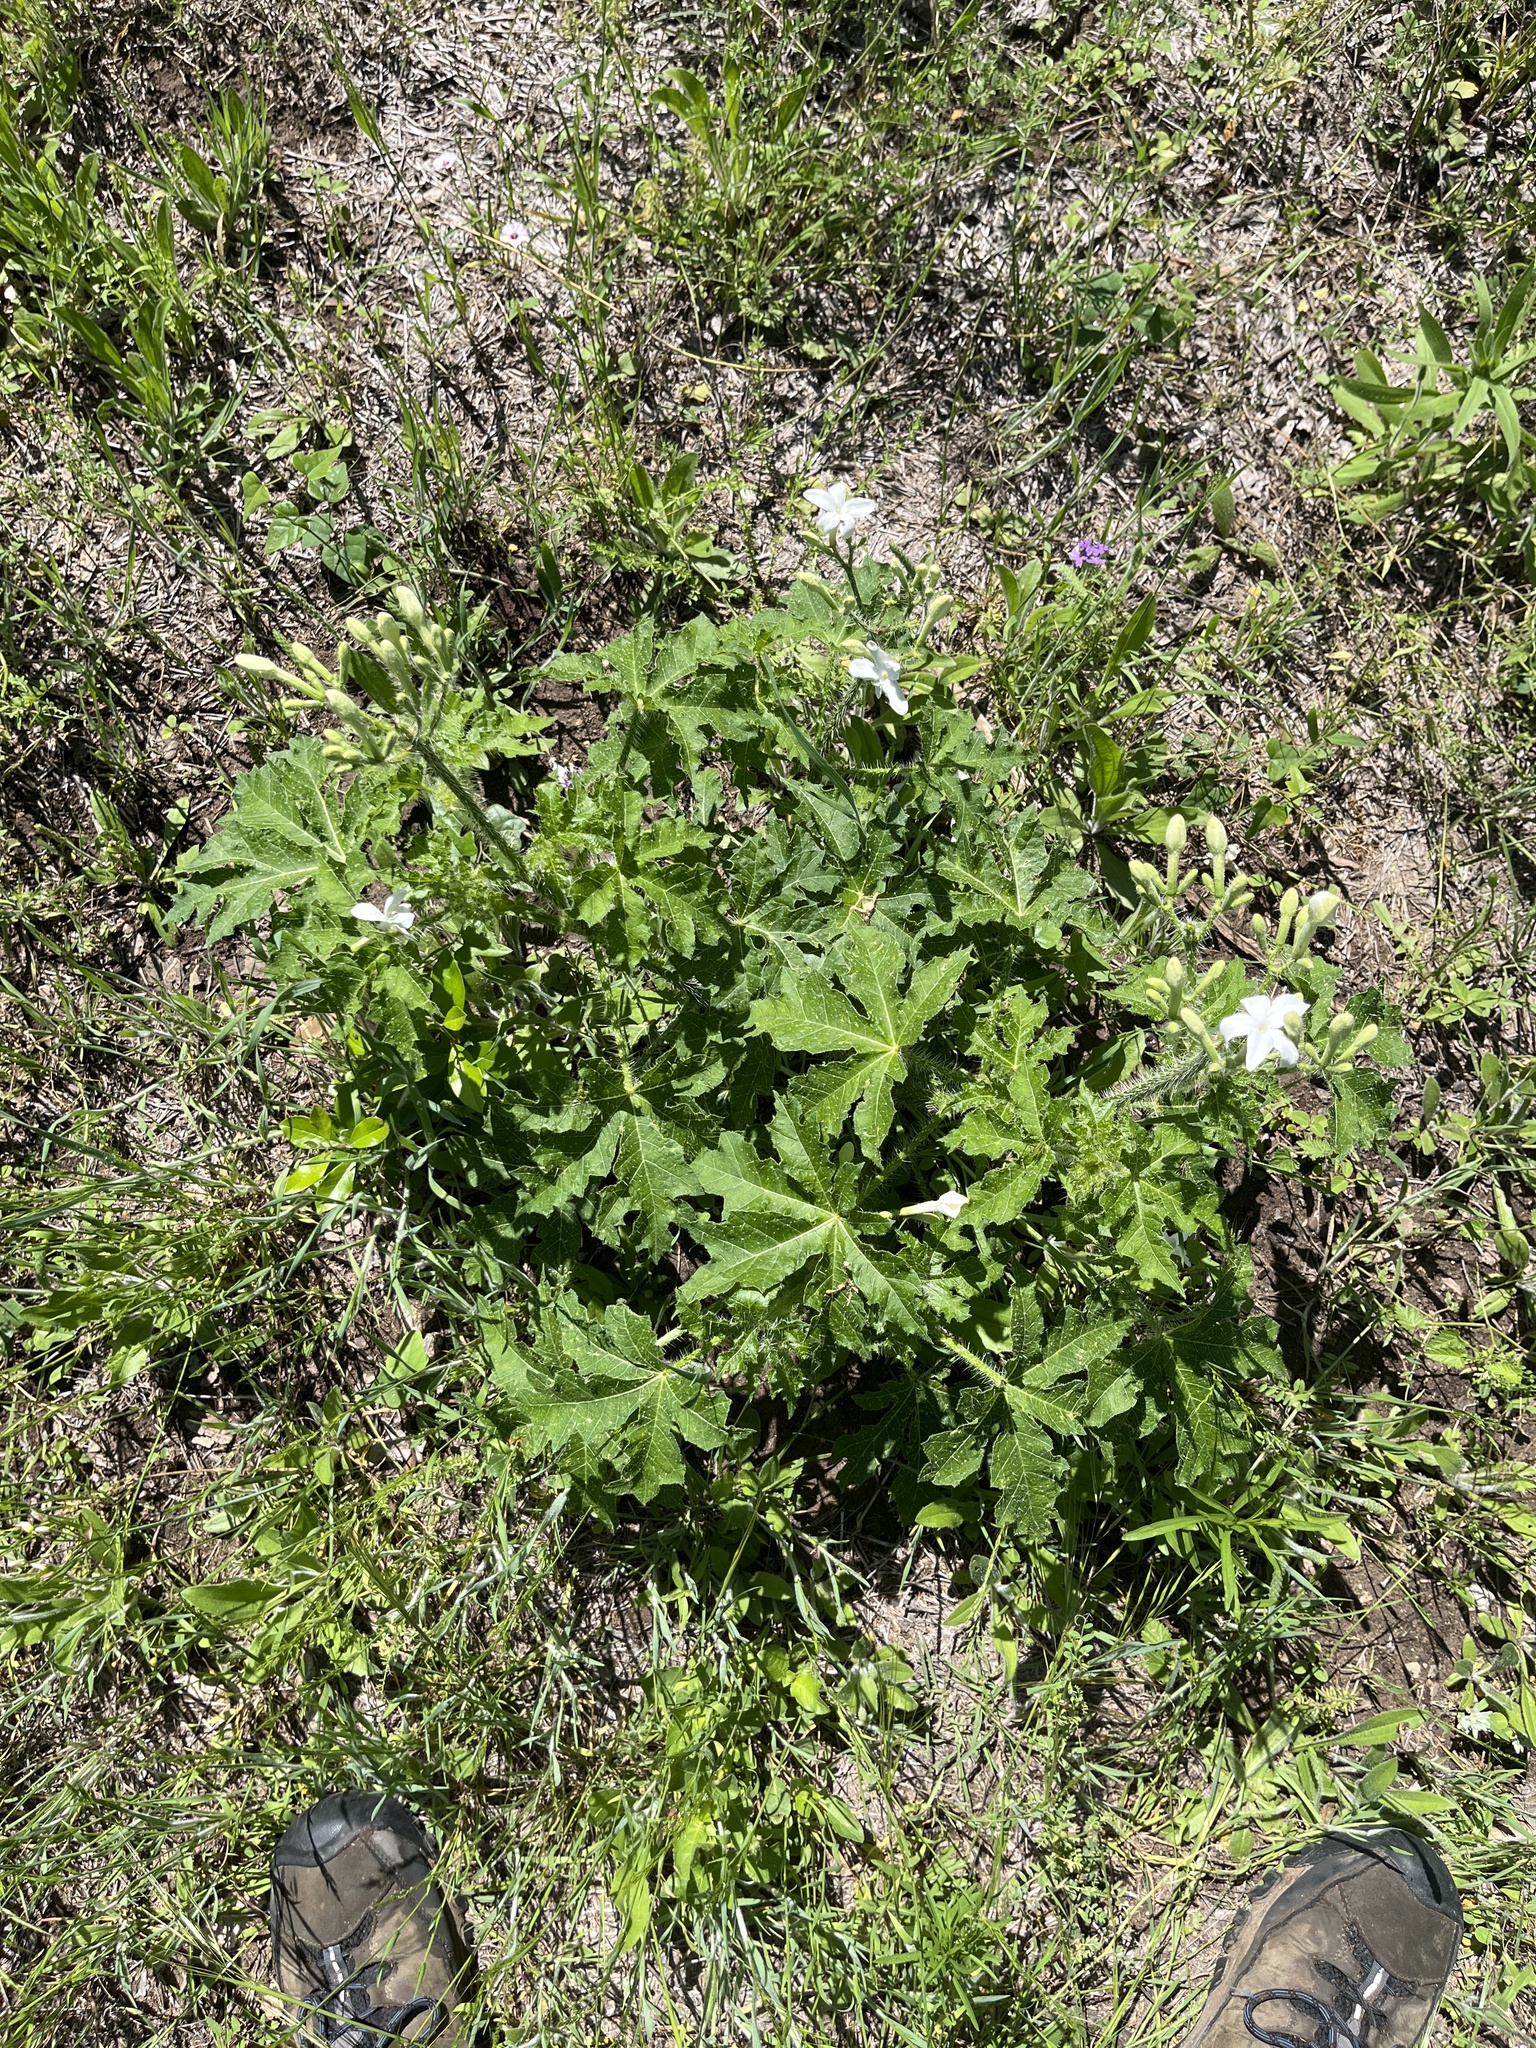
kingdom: Plantae
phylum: Tracheophyta
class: Magnoliopsida
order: Malpighiales
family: Euphorbiaceae
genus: Cnidoscolus
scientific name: Cnidoscolus texanus
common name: Texas bull-nettle
